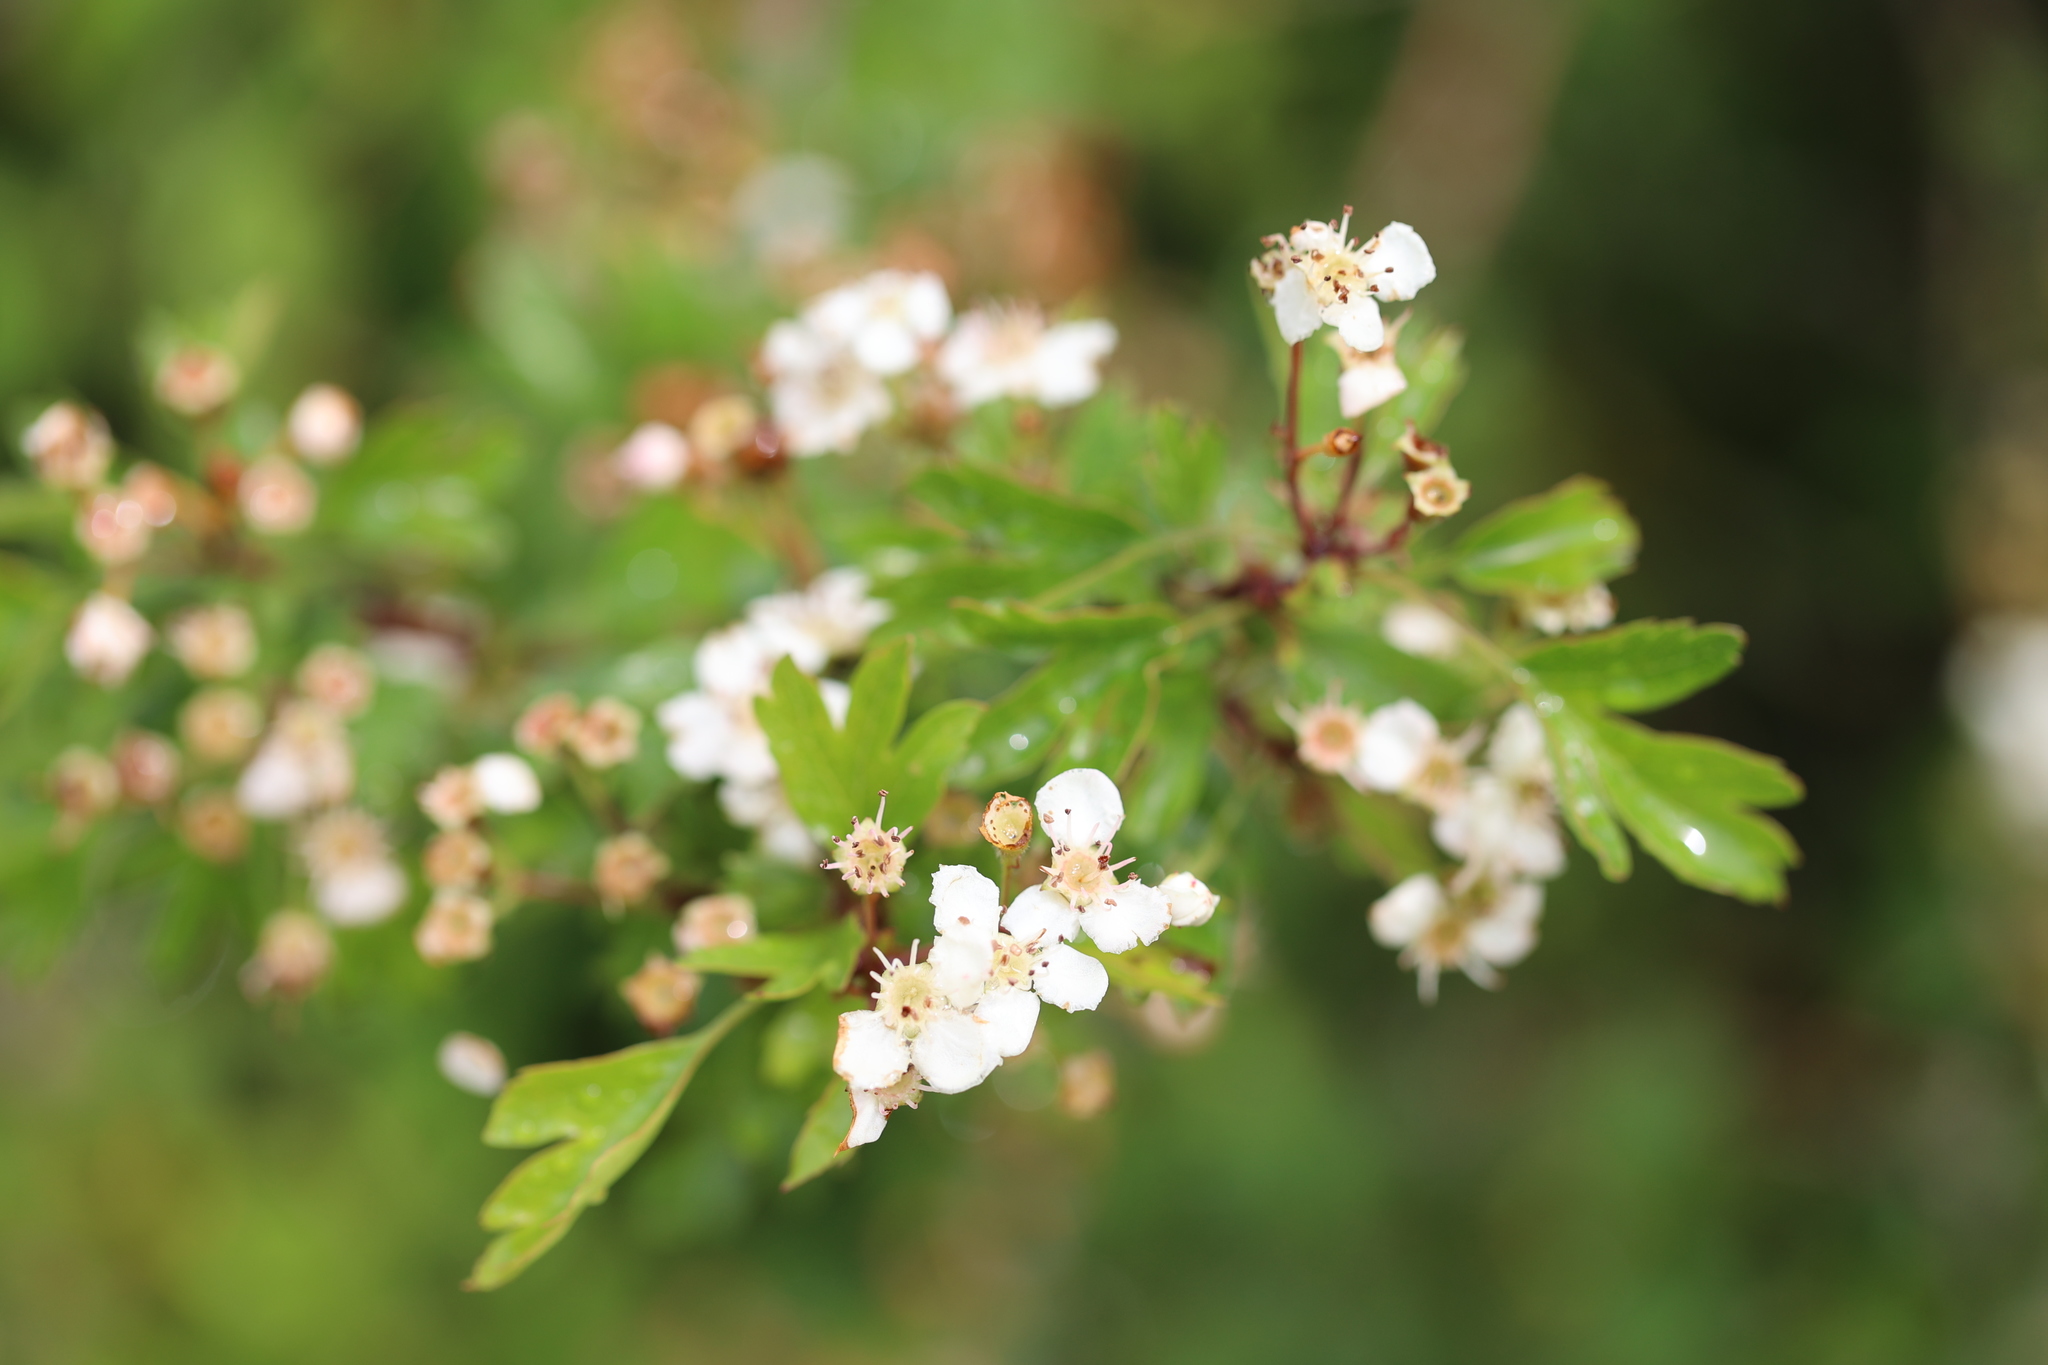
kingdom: Plantae
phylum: Tracheophyta
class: Magnoliopsida
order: Rosales
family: Rosaceae
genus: Crataegus
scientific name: Crataegus monogyna
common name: Hawthorn
